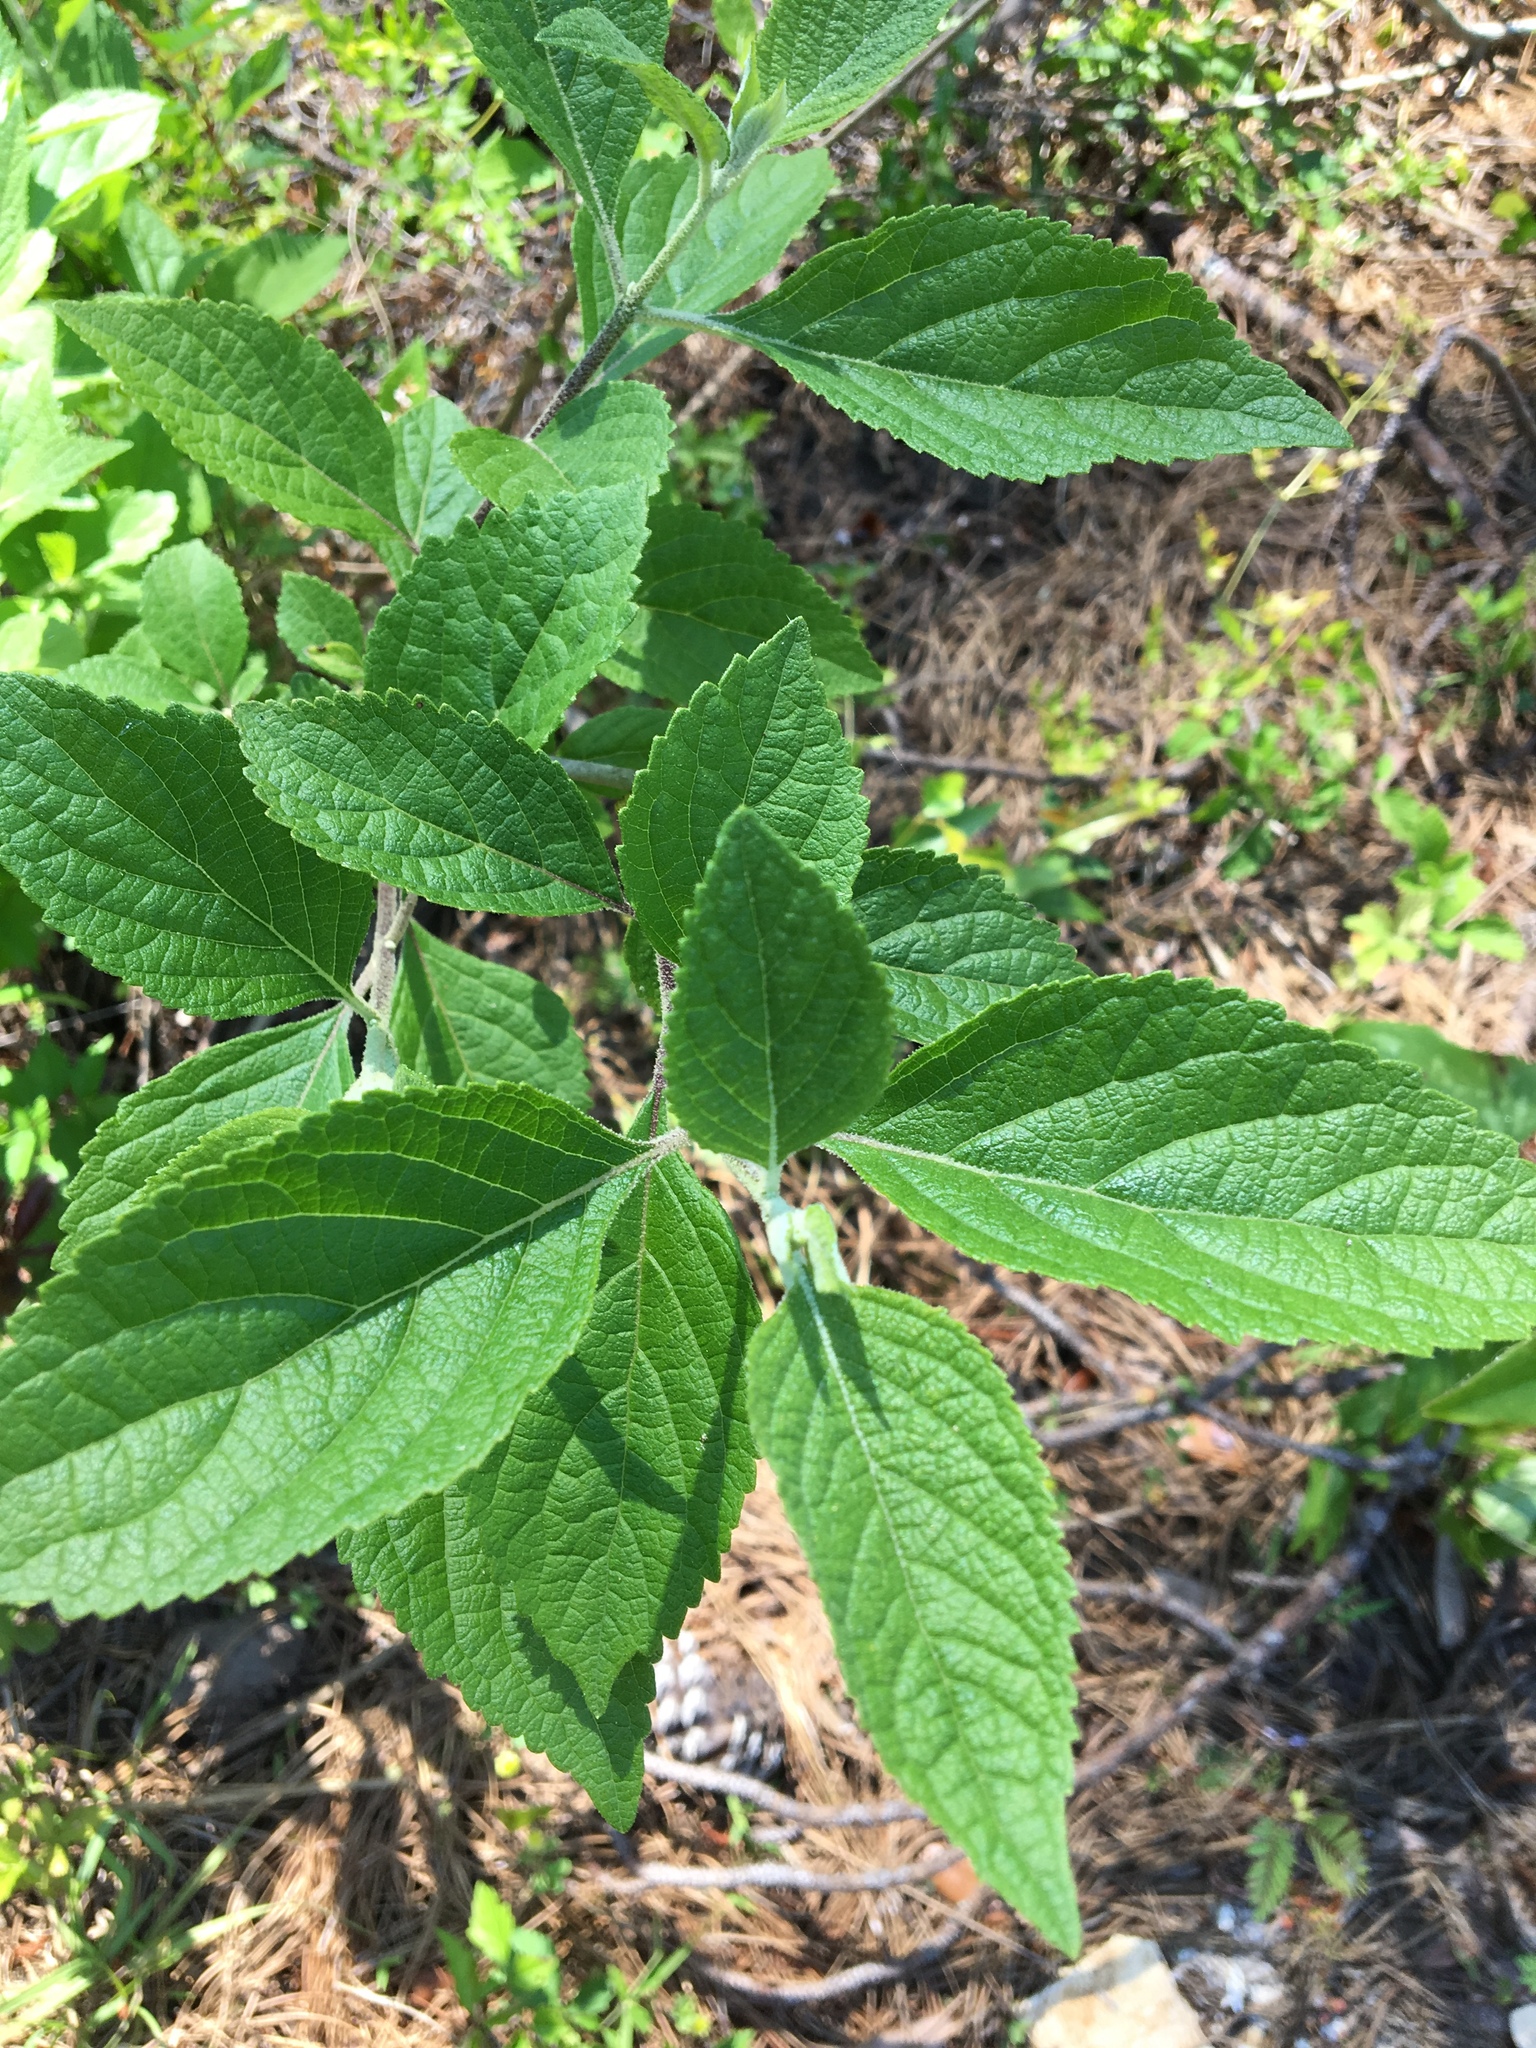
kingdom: Plantae
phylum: Tracheophyta
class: Magnoliopsida
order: Lamiales
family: Lamiaceae
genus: Callicarpa
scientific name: Callicarpa americana
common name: American beautyberry
